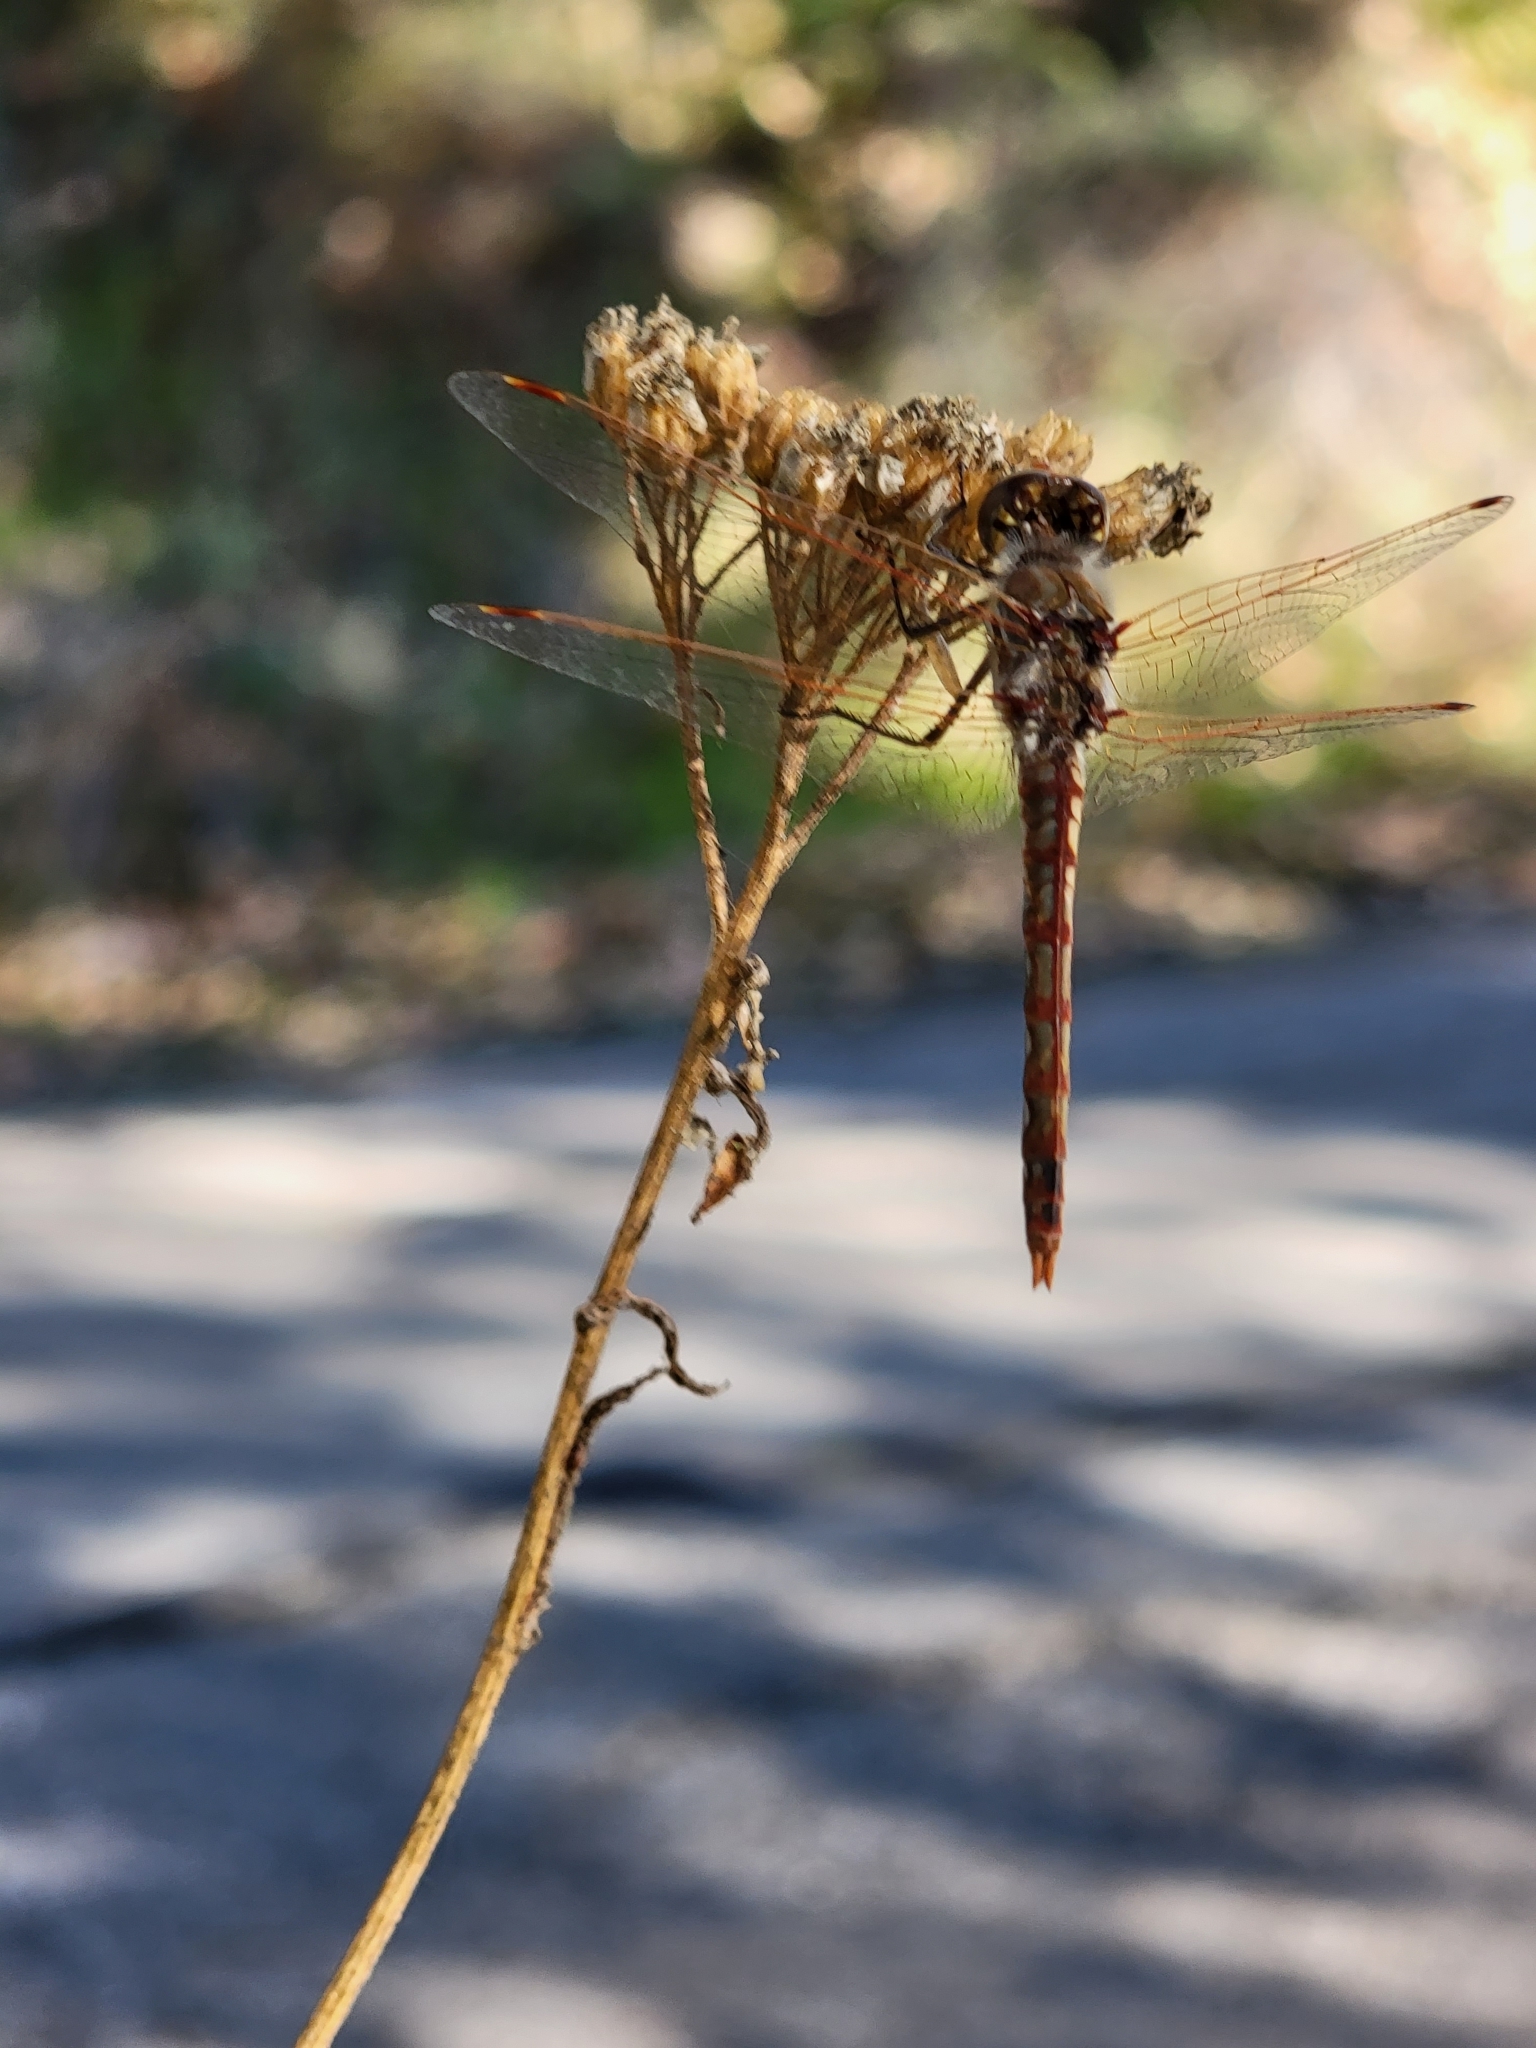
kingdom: Animalia
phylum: Arthropoda
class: Insecta
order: Odonata
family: Libellulidae
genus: Sympetrum
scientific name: Sympetrum corruptum
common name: Variegated meadowhawk
